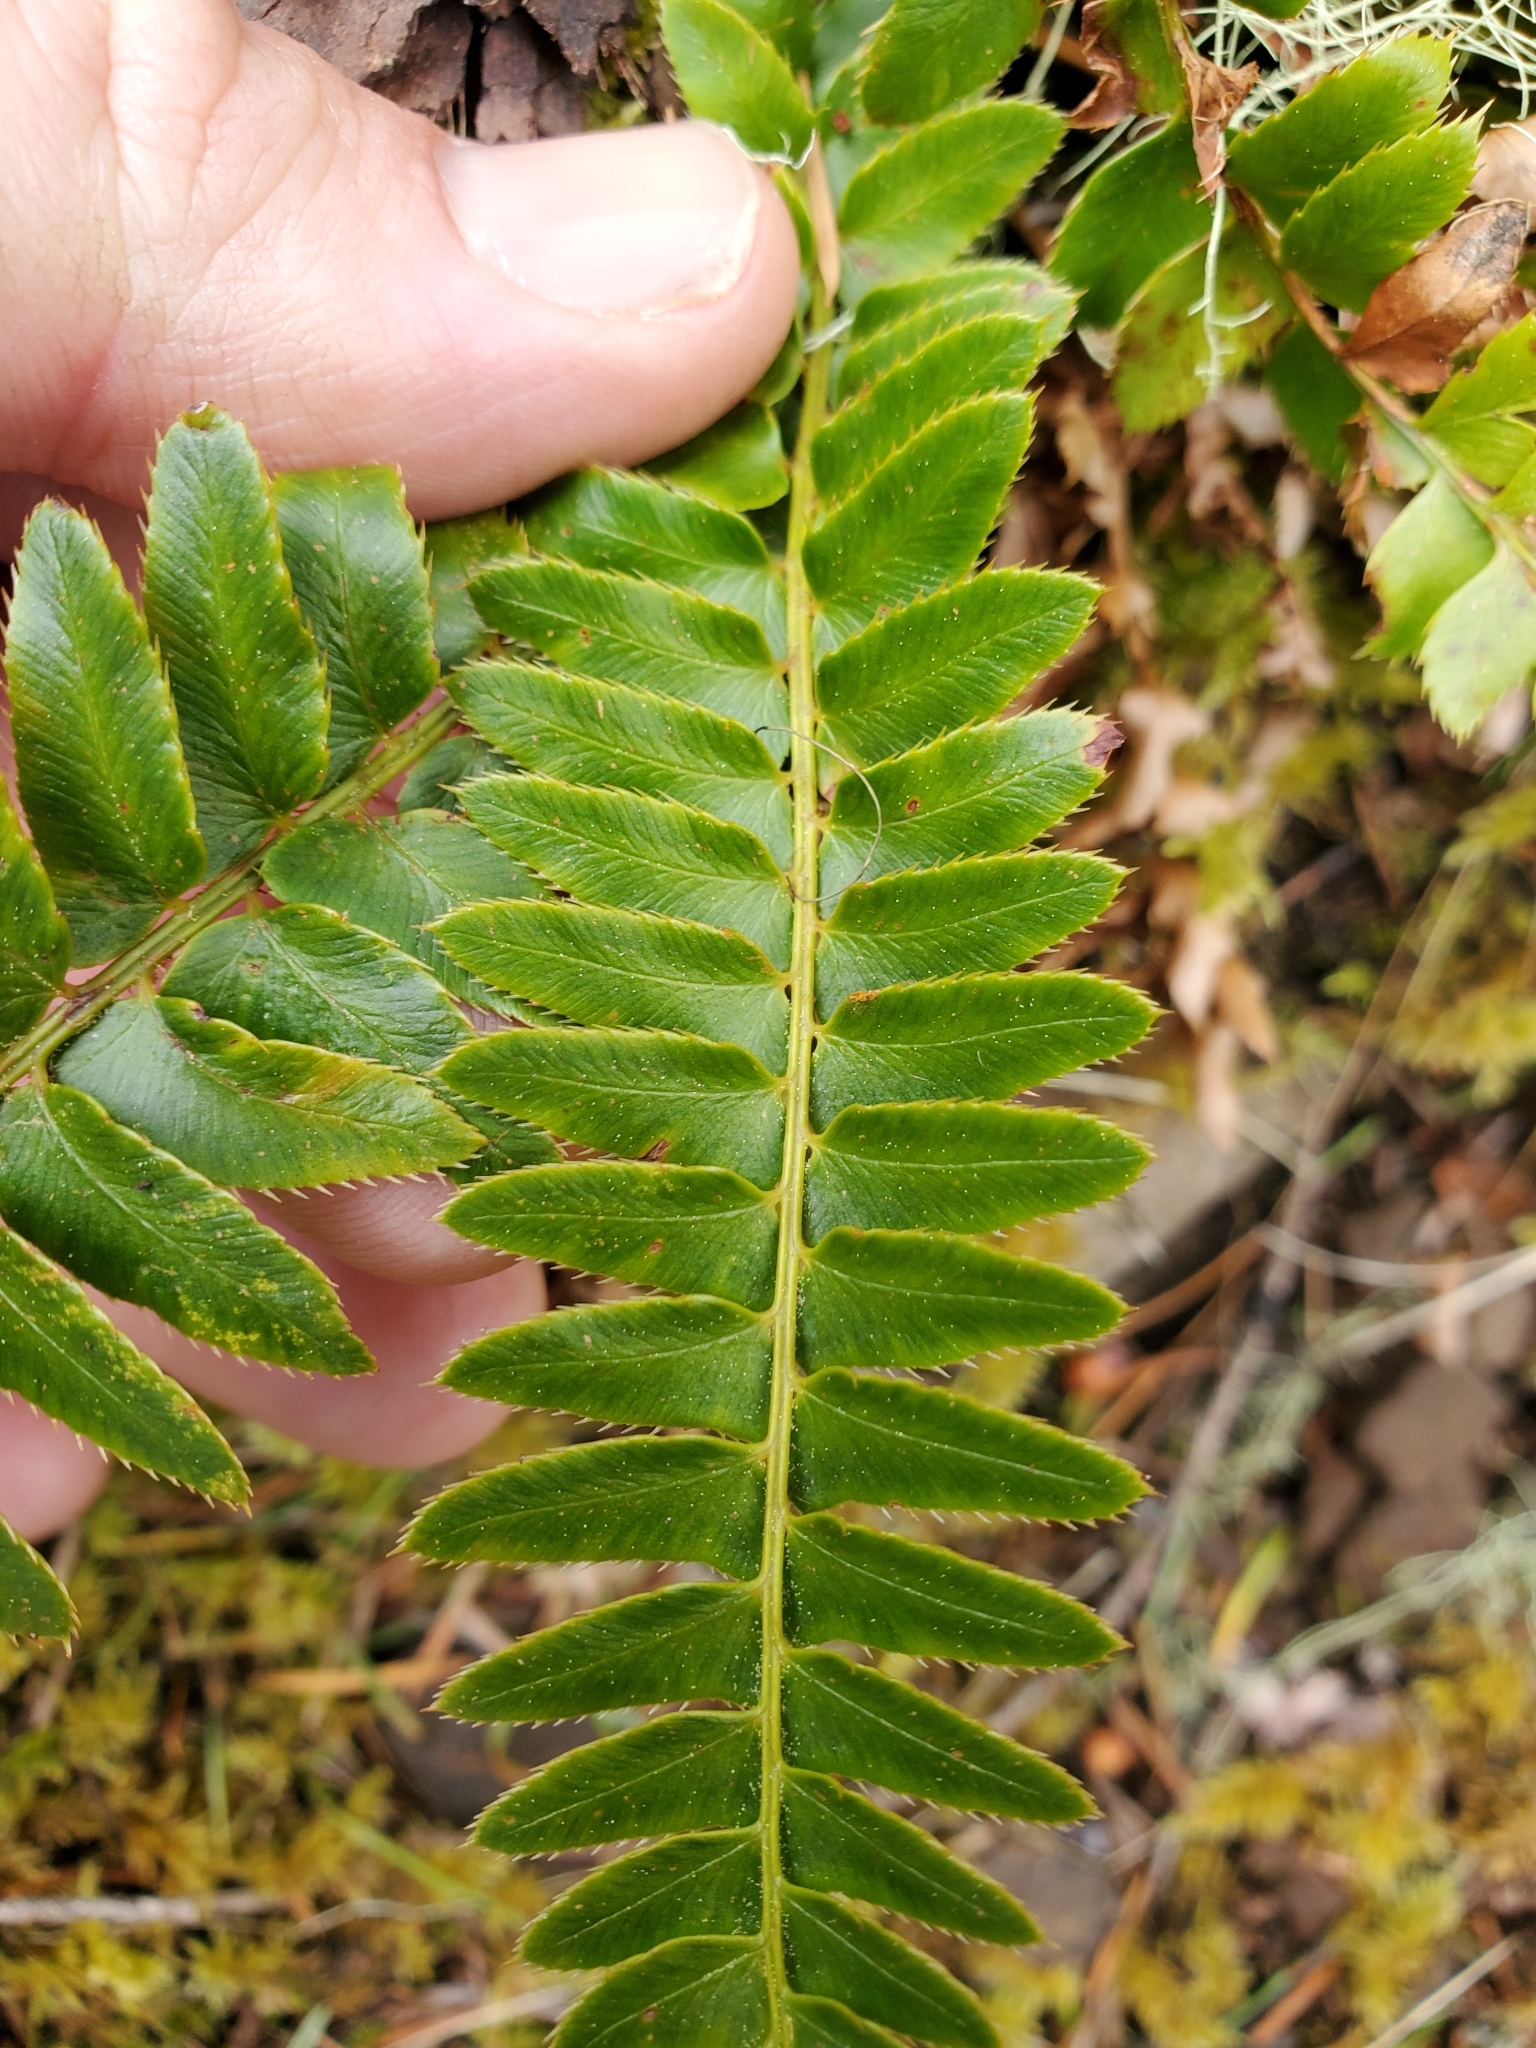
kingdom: Plantae
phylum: Tracheophyta
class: Polypodiopsida
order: Polypodiales
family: Dryopteridaceae
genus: Polystichum
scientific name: Polystichum imbricans
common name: Dwarf western sword fern
